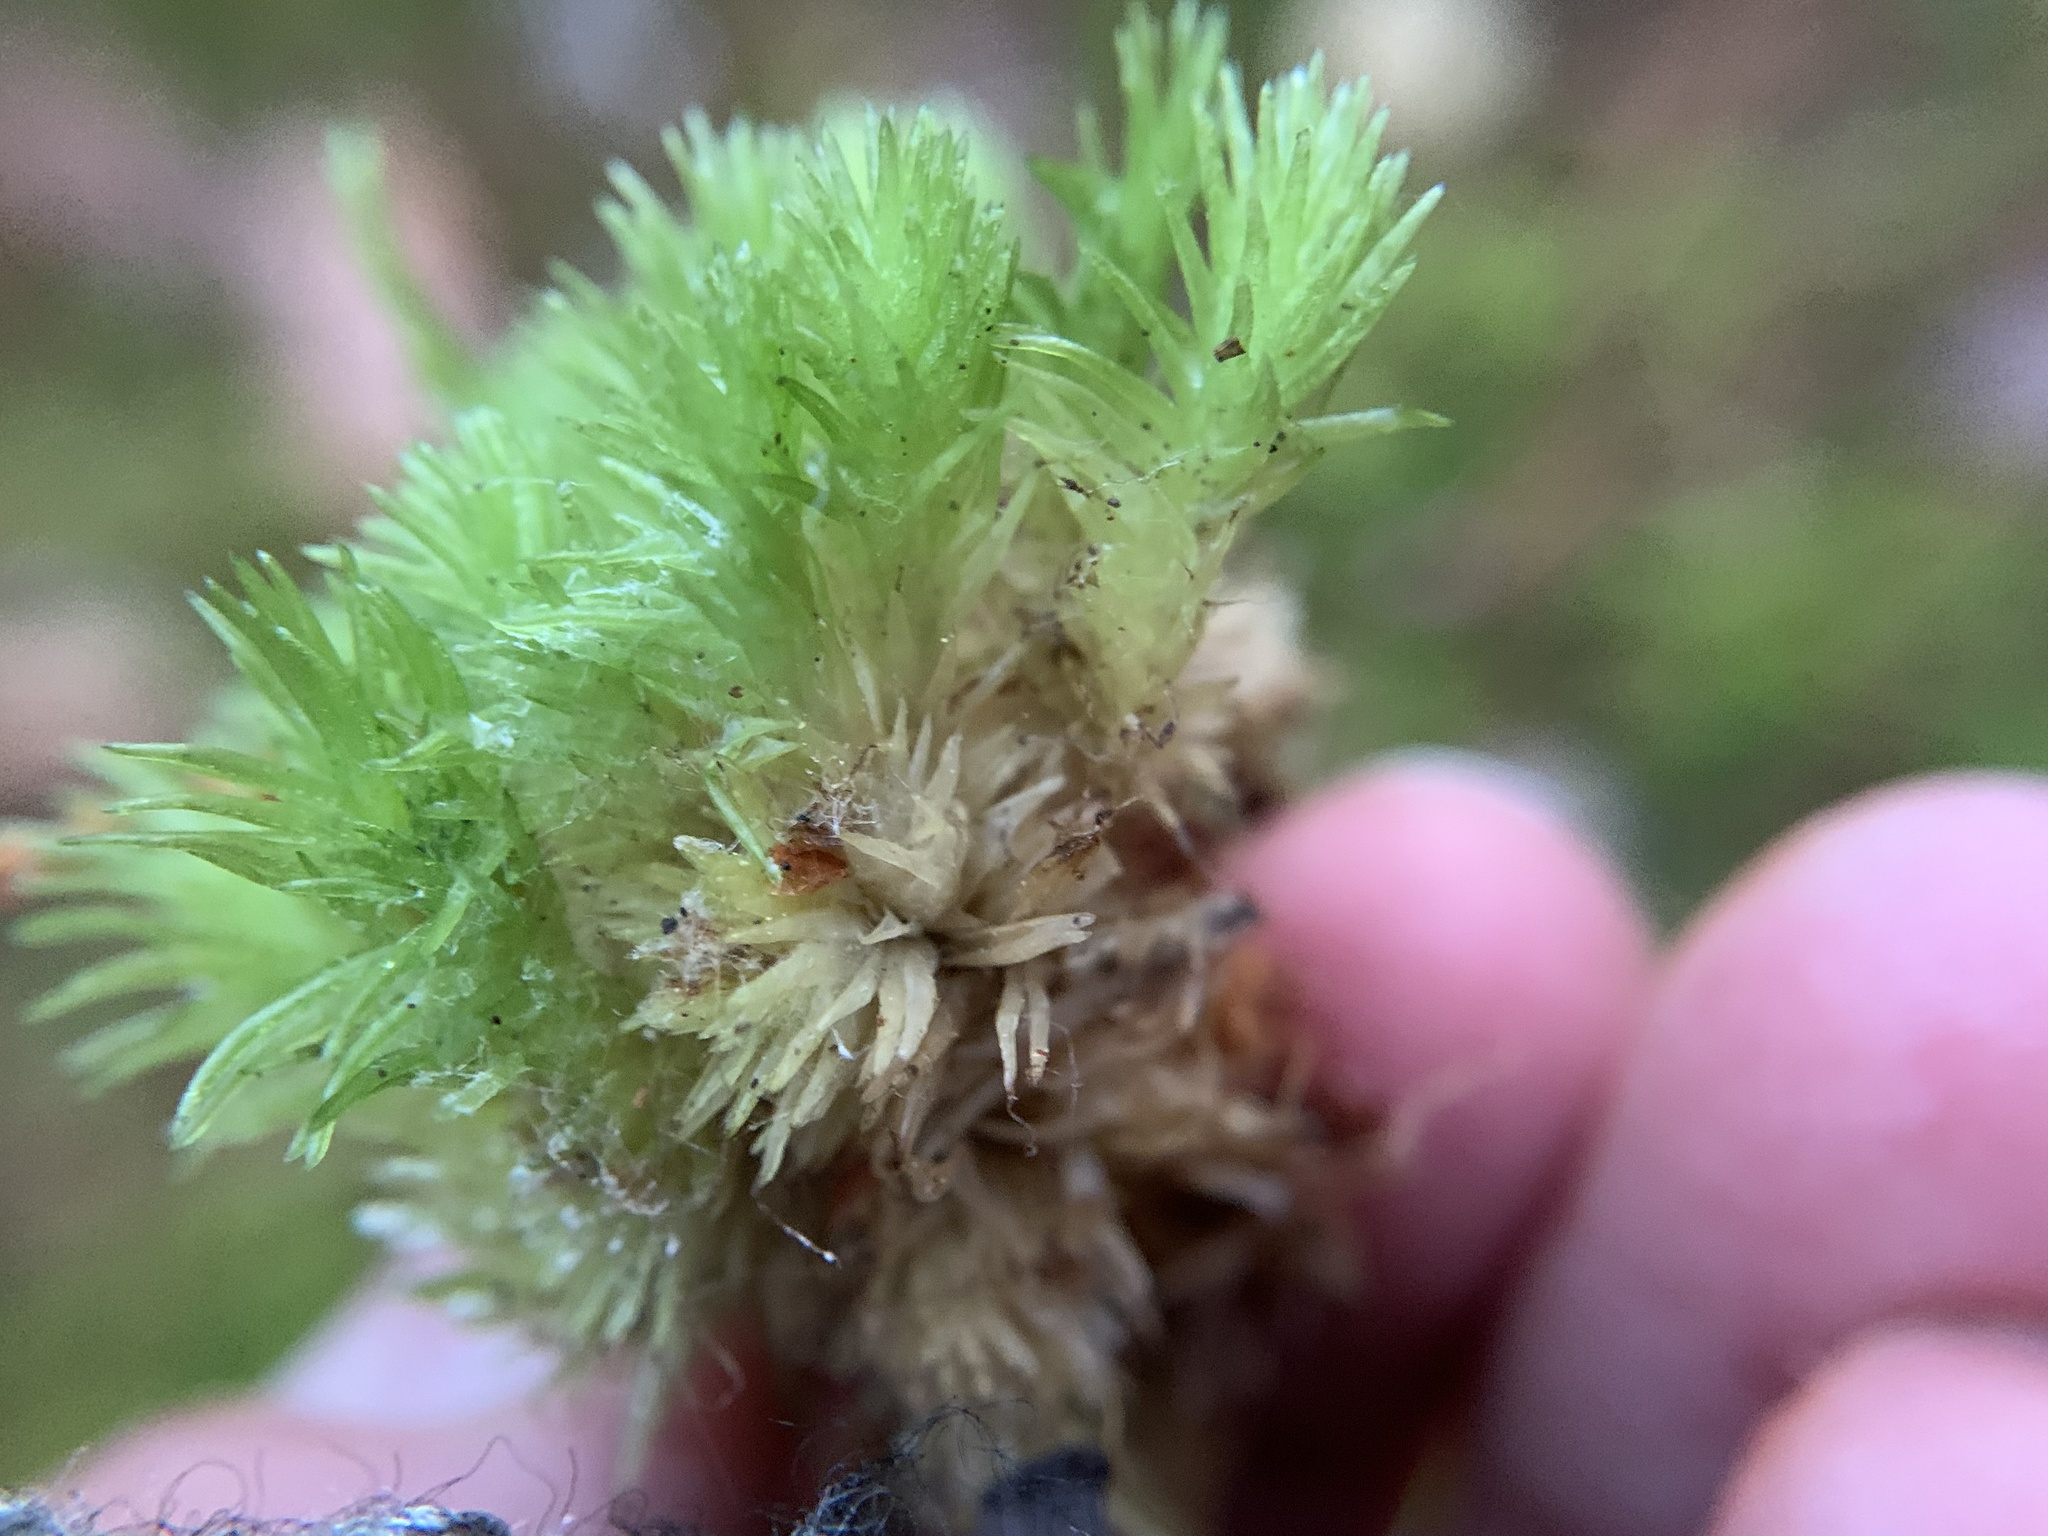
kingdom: Plantae
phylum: Bryophyta
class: Bryopsida
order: Dicranales
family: Leucobryaceae
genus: Leucobryum
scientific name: Leucobryum glaucum
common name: Large white-moss
